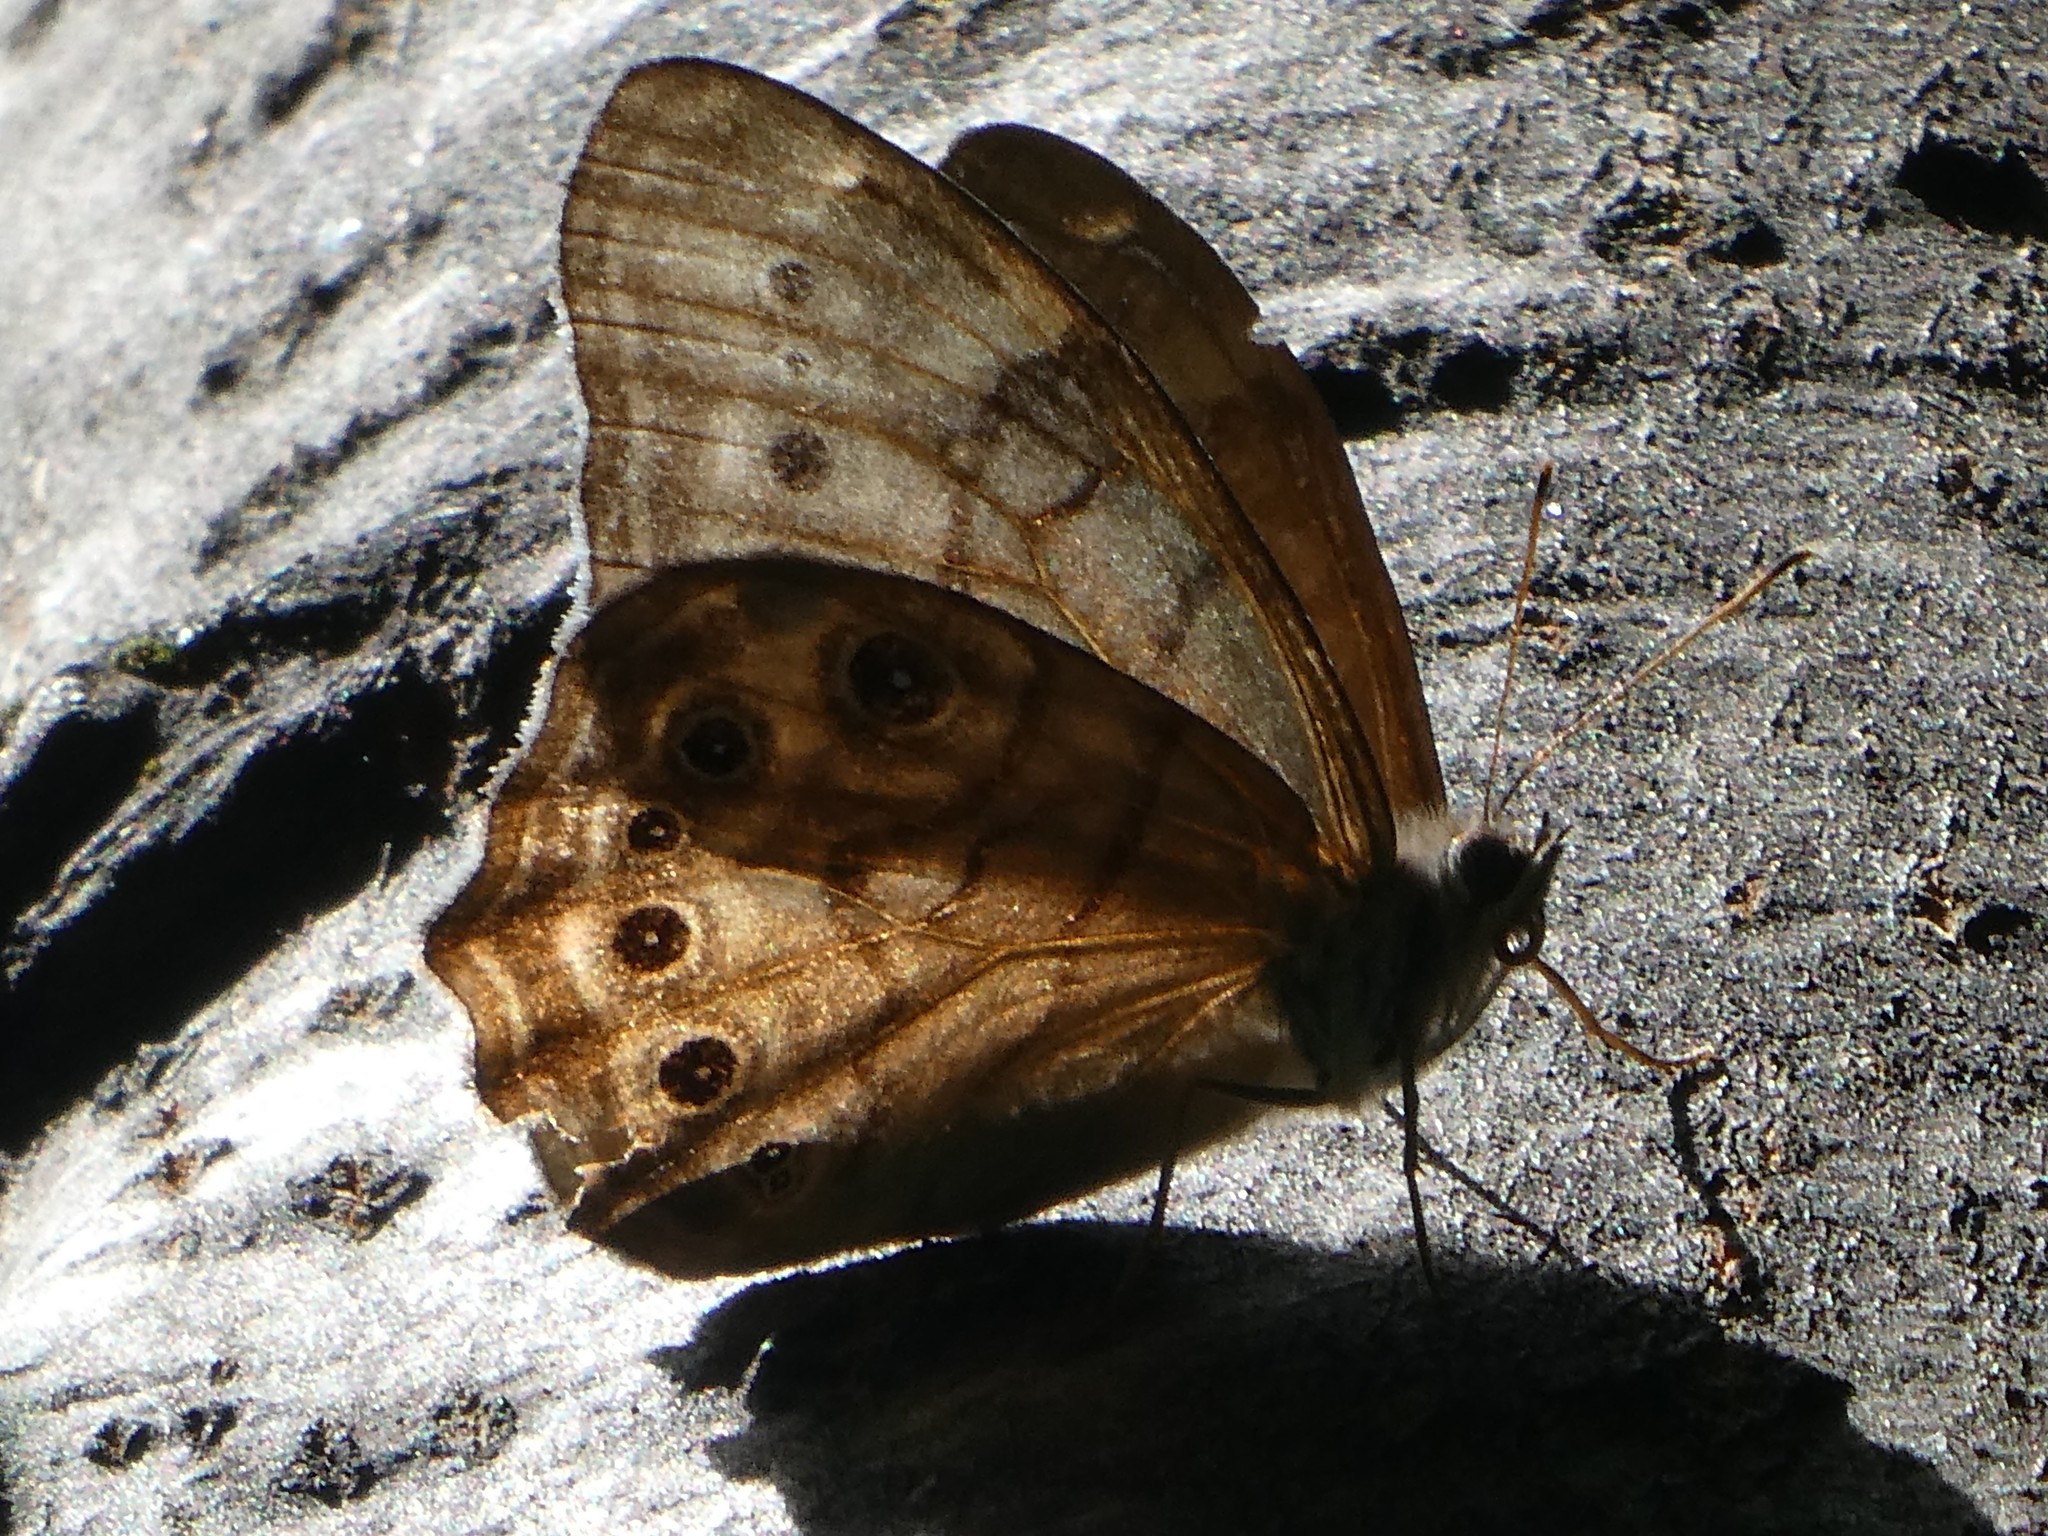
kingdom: Animalia
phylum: Arthropoda
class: Insecta
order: Lepidoptera
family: Nymphalidae
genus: Lethe
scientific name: Lethe anthedon
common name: Northern pearly-eye
